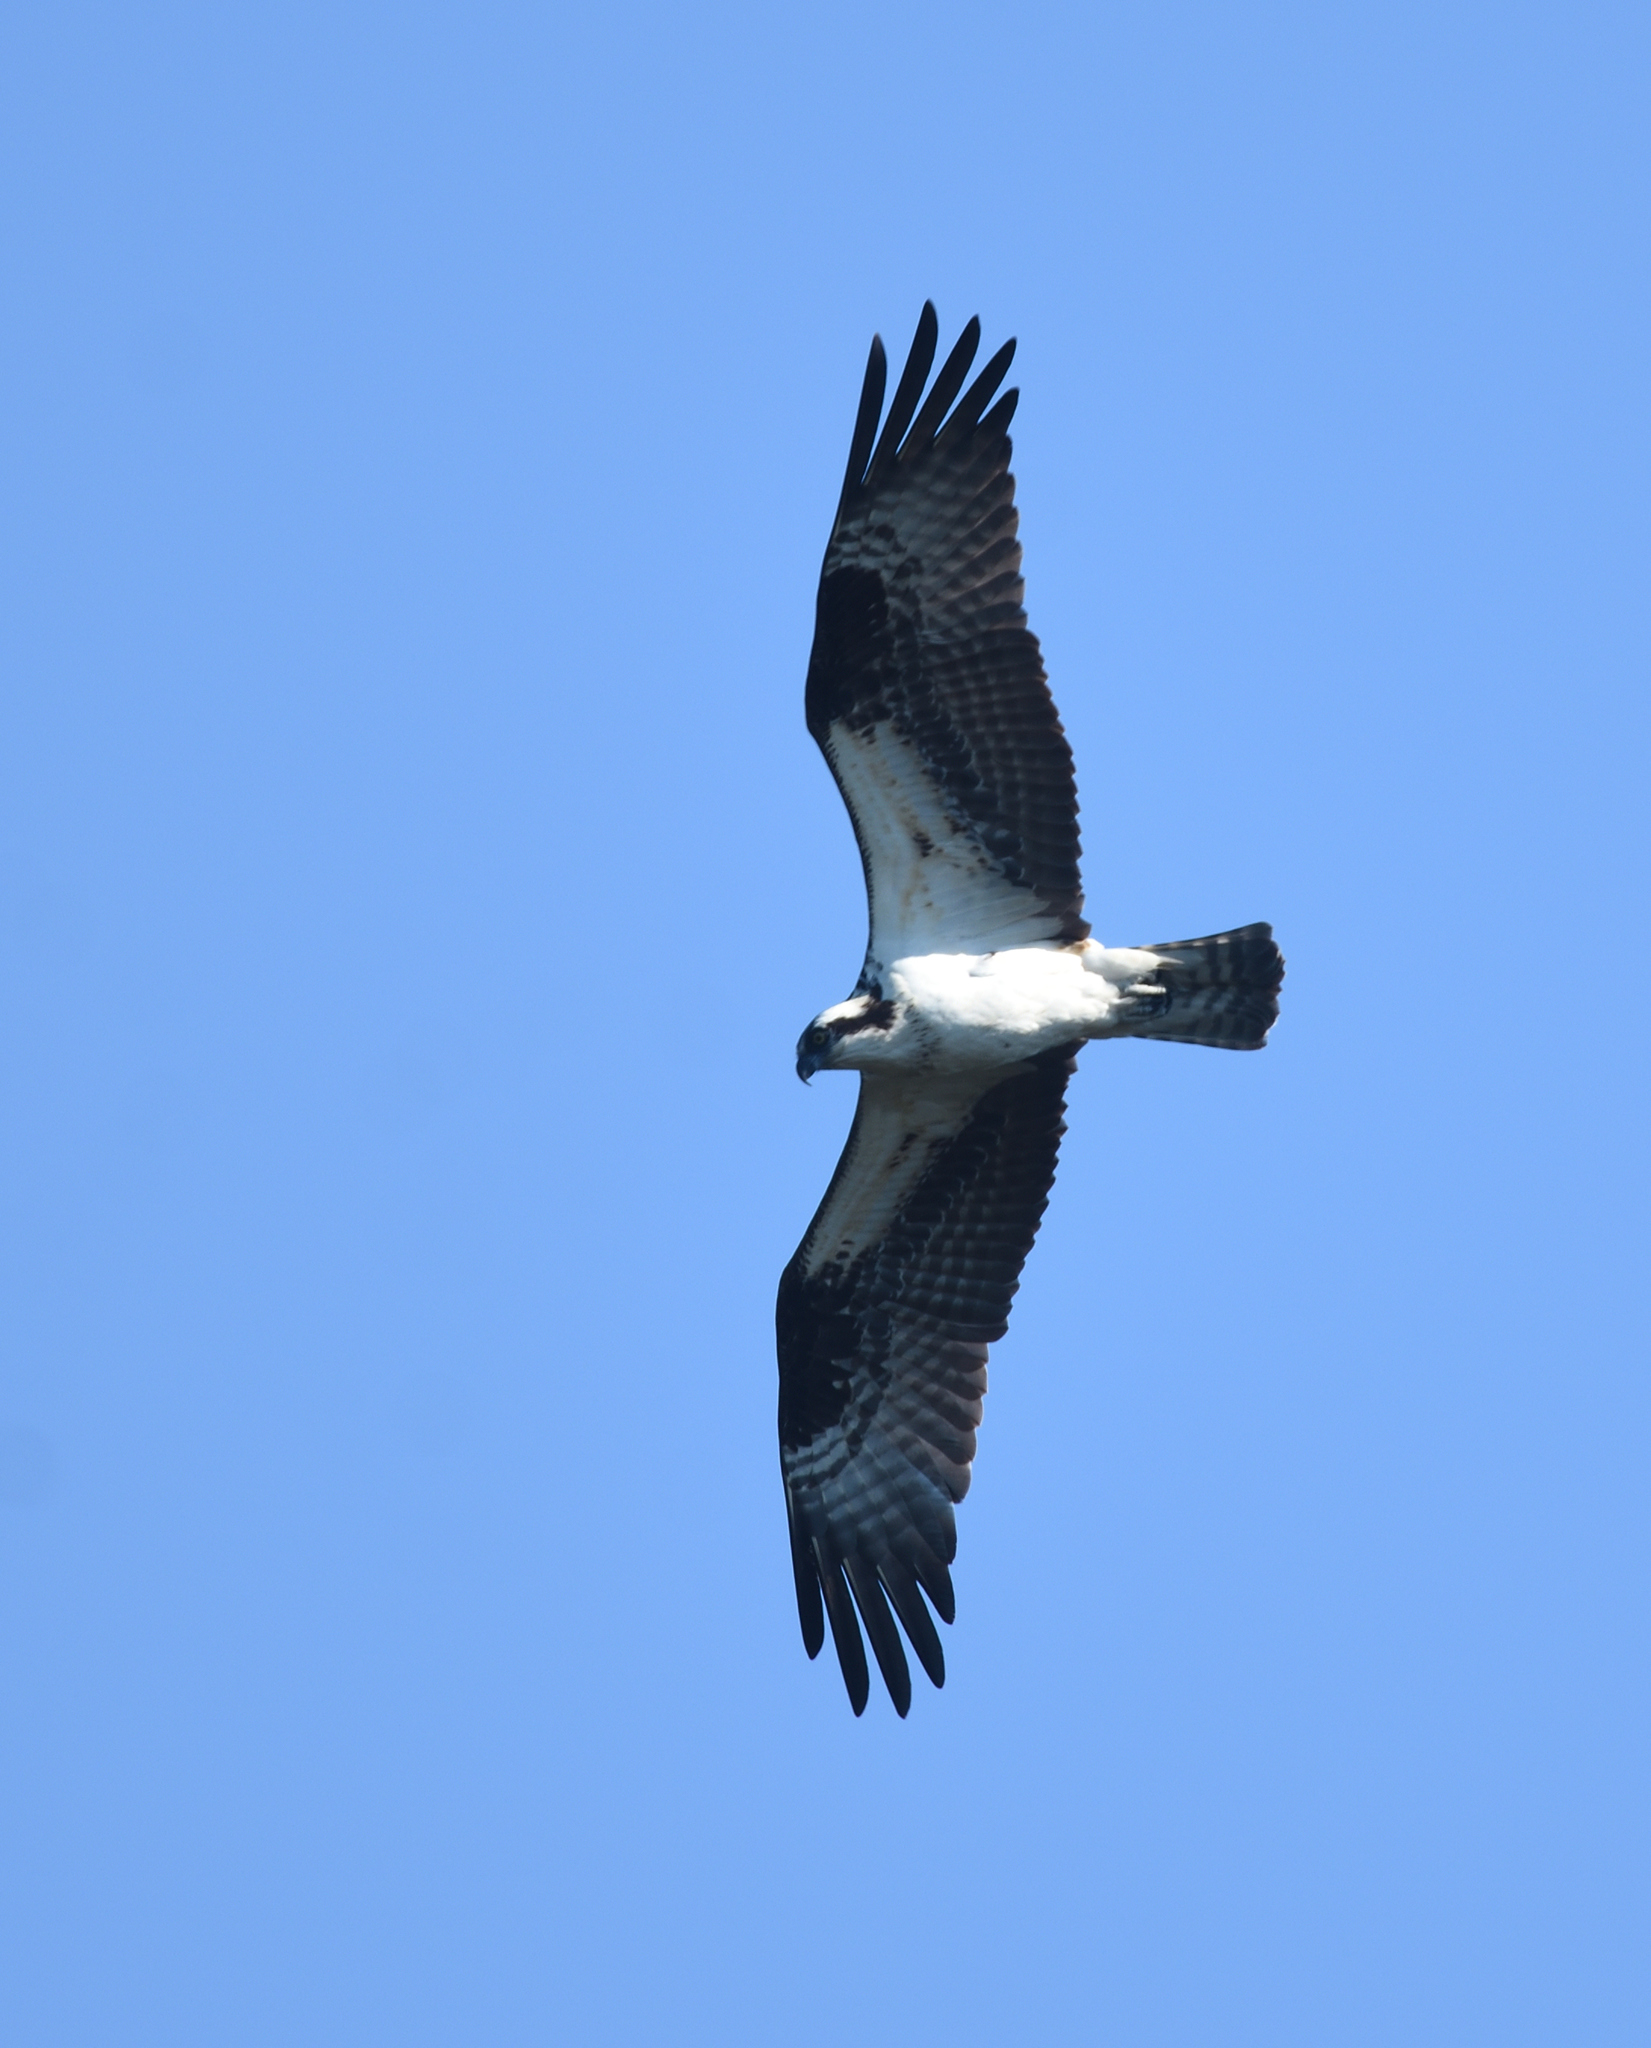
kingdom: Animalia
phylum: Chordata
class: Aves
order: Accipitriformes
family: Pandionidae
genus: Pandion
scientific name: Pandion haliaetus
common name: Osprey
